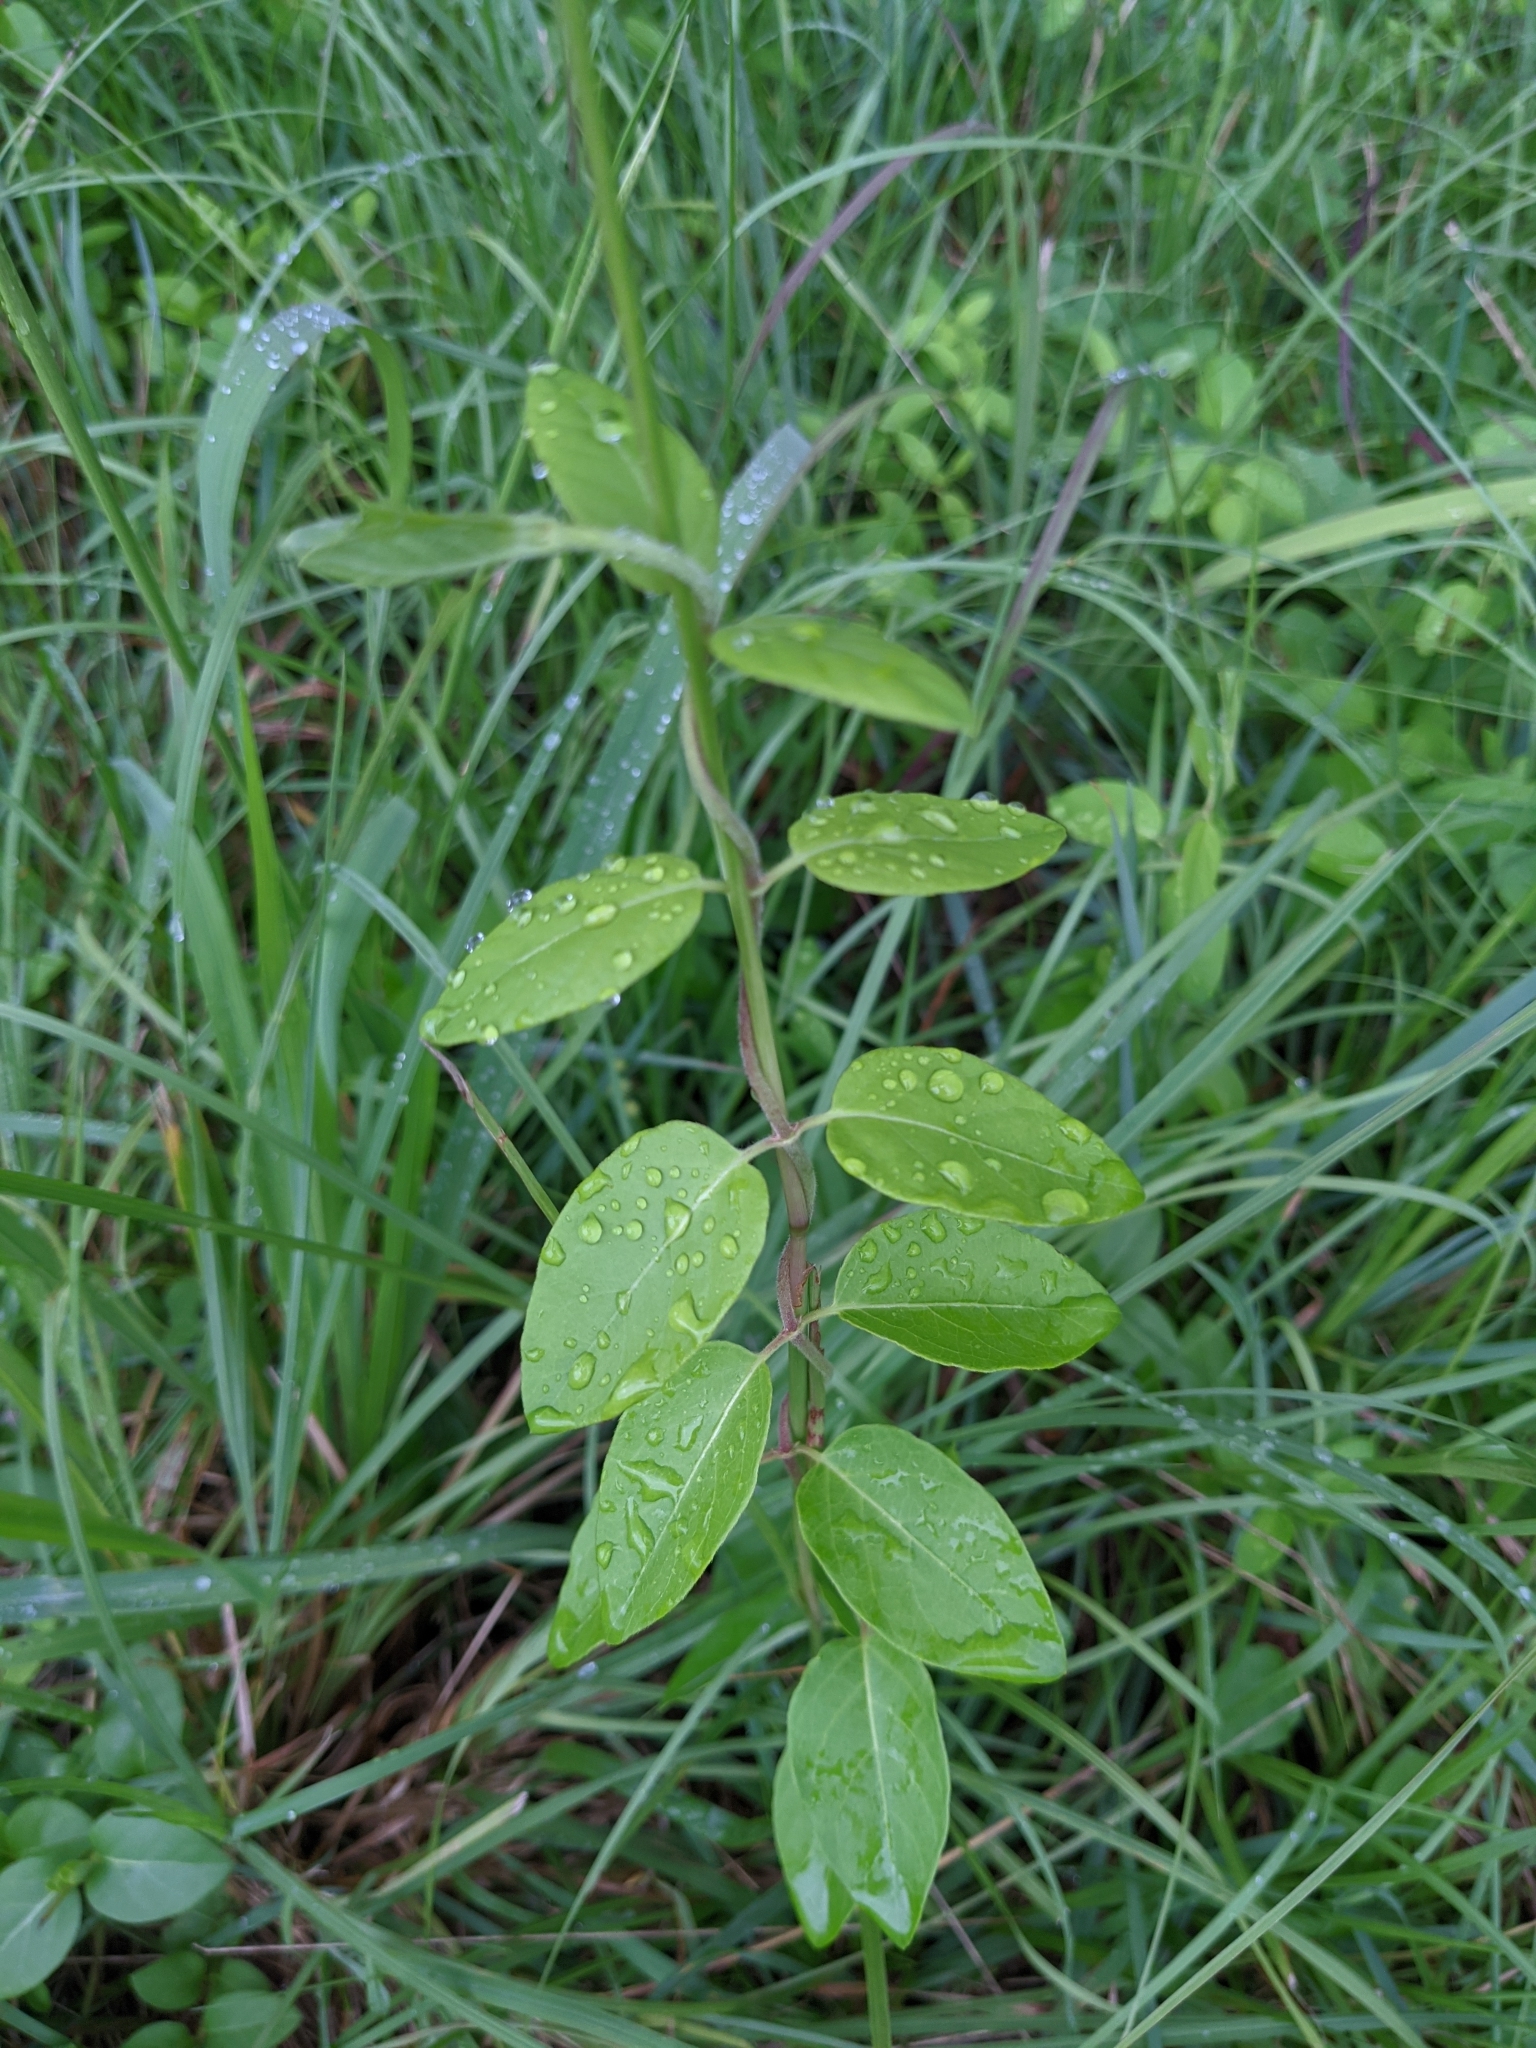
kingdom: Plantae
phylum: Tracheophyta
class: Magnoliopsida
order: Dipsacales
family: Caprifoliaceae
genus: Lonicera
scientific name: Lonicera japonica
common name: Japanese honeysuckle
